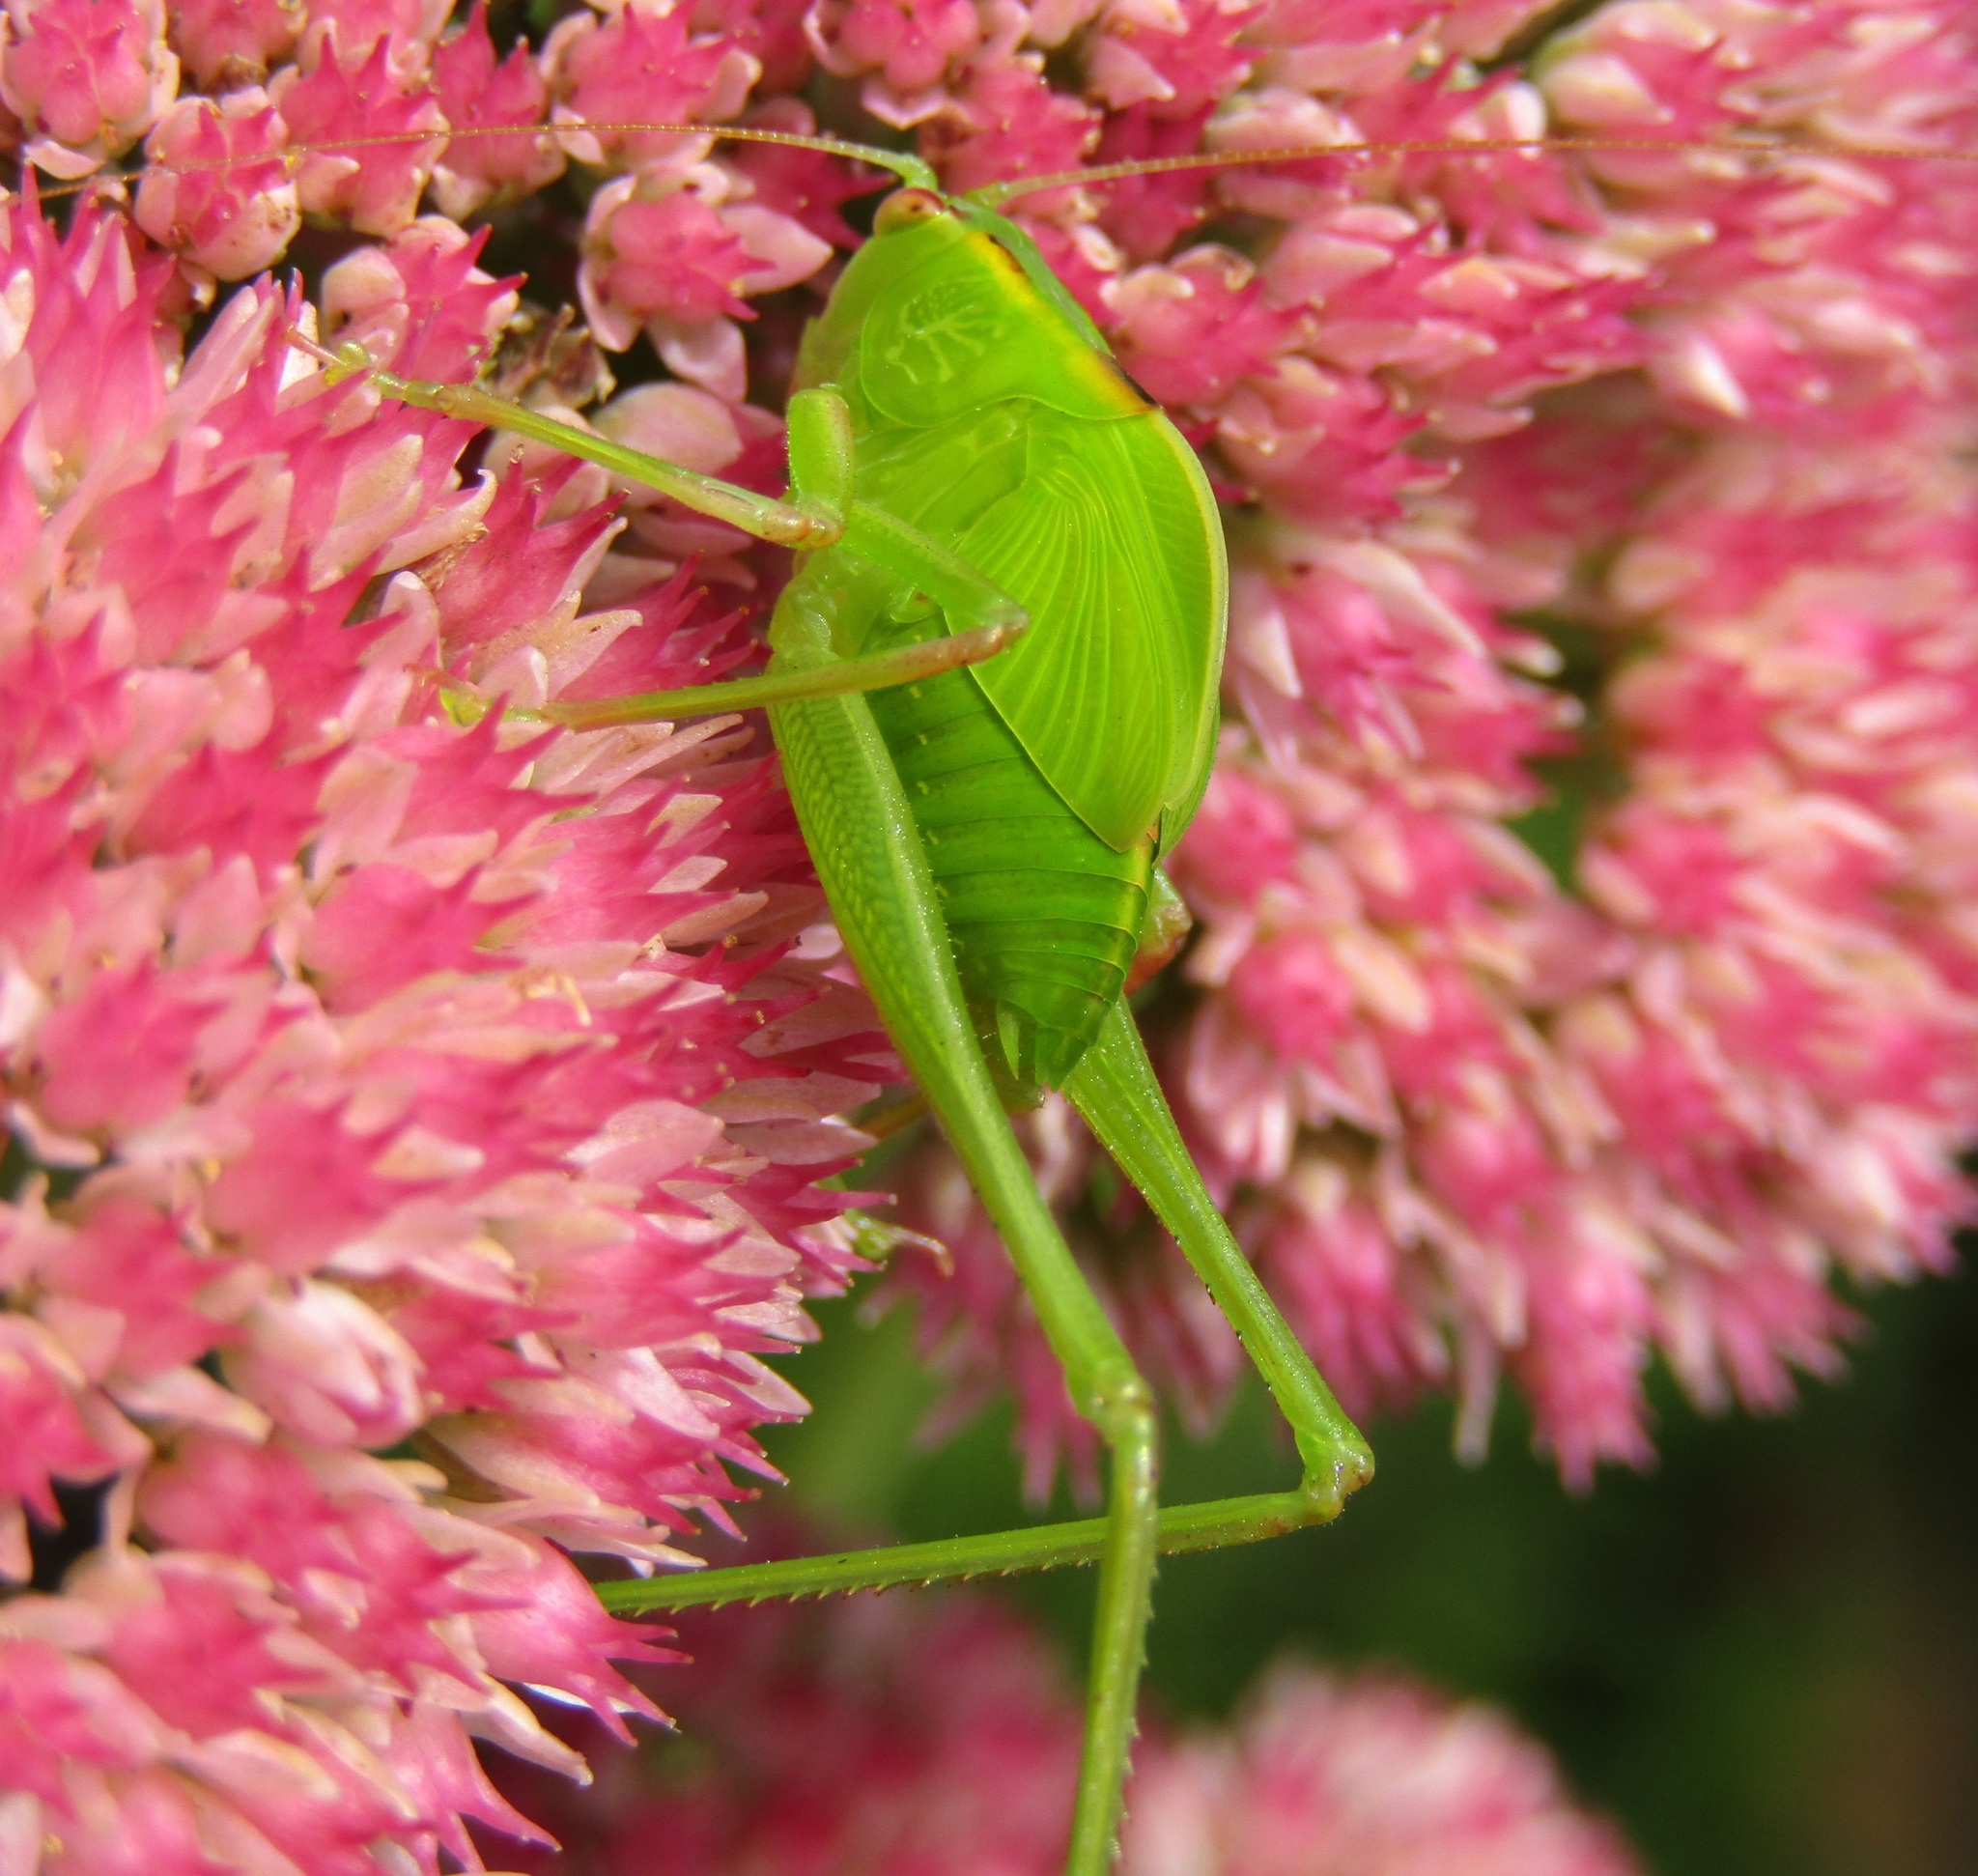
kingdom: Animalia
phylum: Arthropoda
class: Insecta
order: Orthoptera
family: Tettigoniidae
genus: Caedicia
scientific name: Caedicia simplex
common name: Common garden katydid
